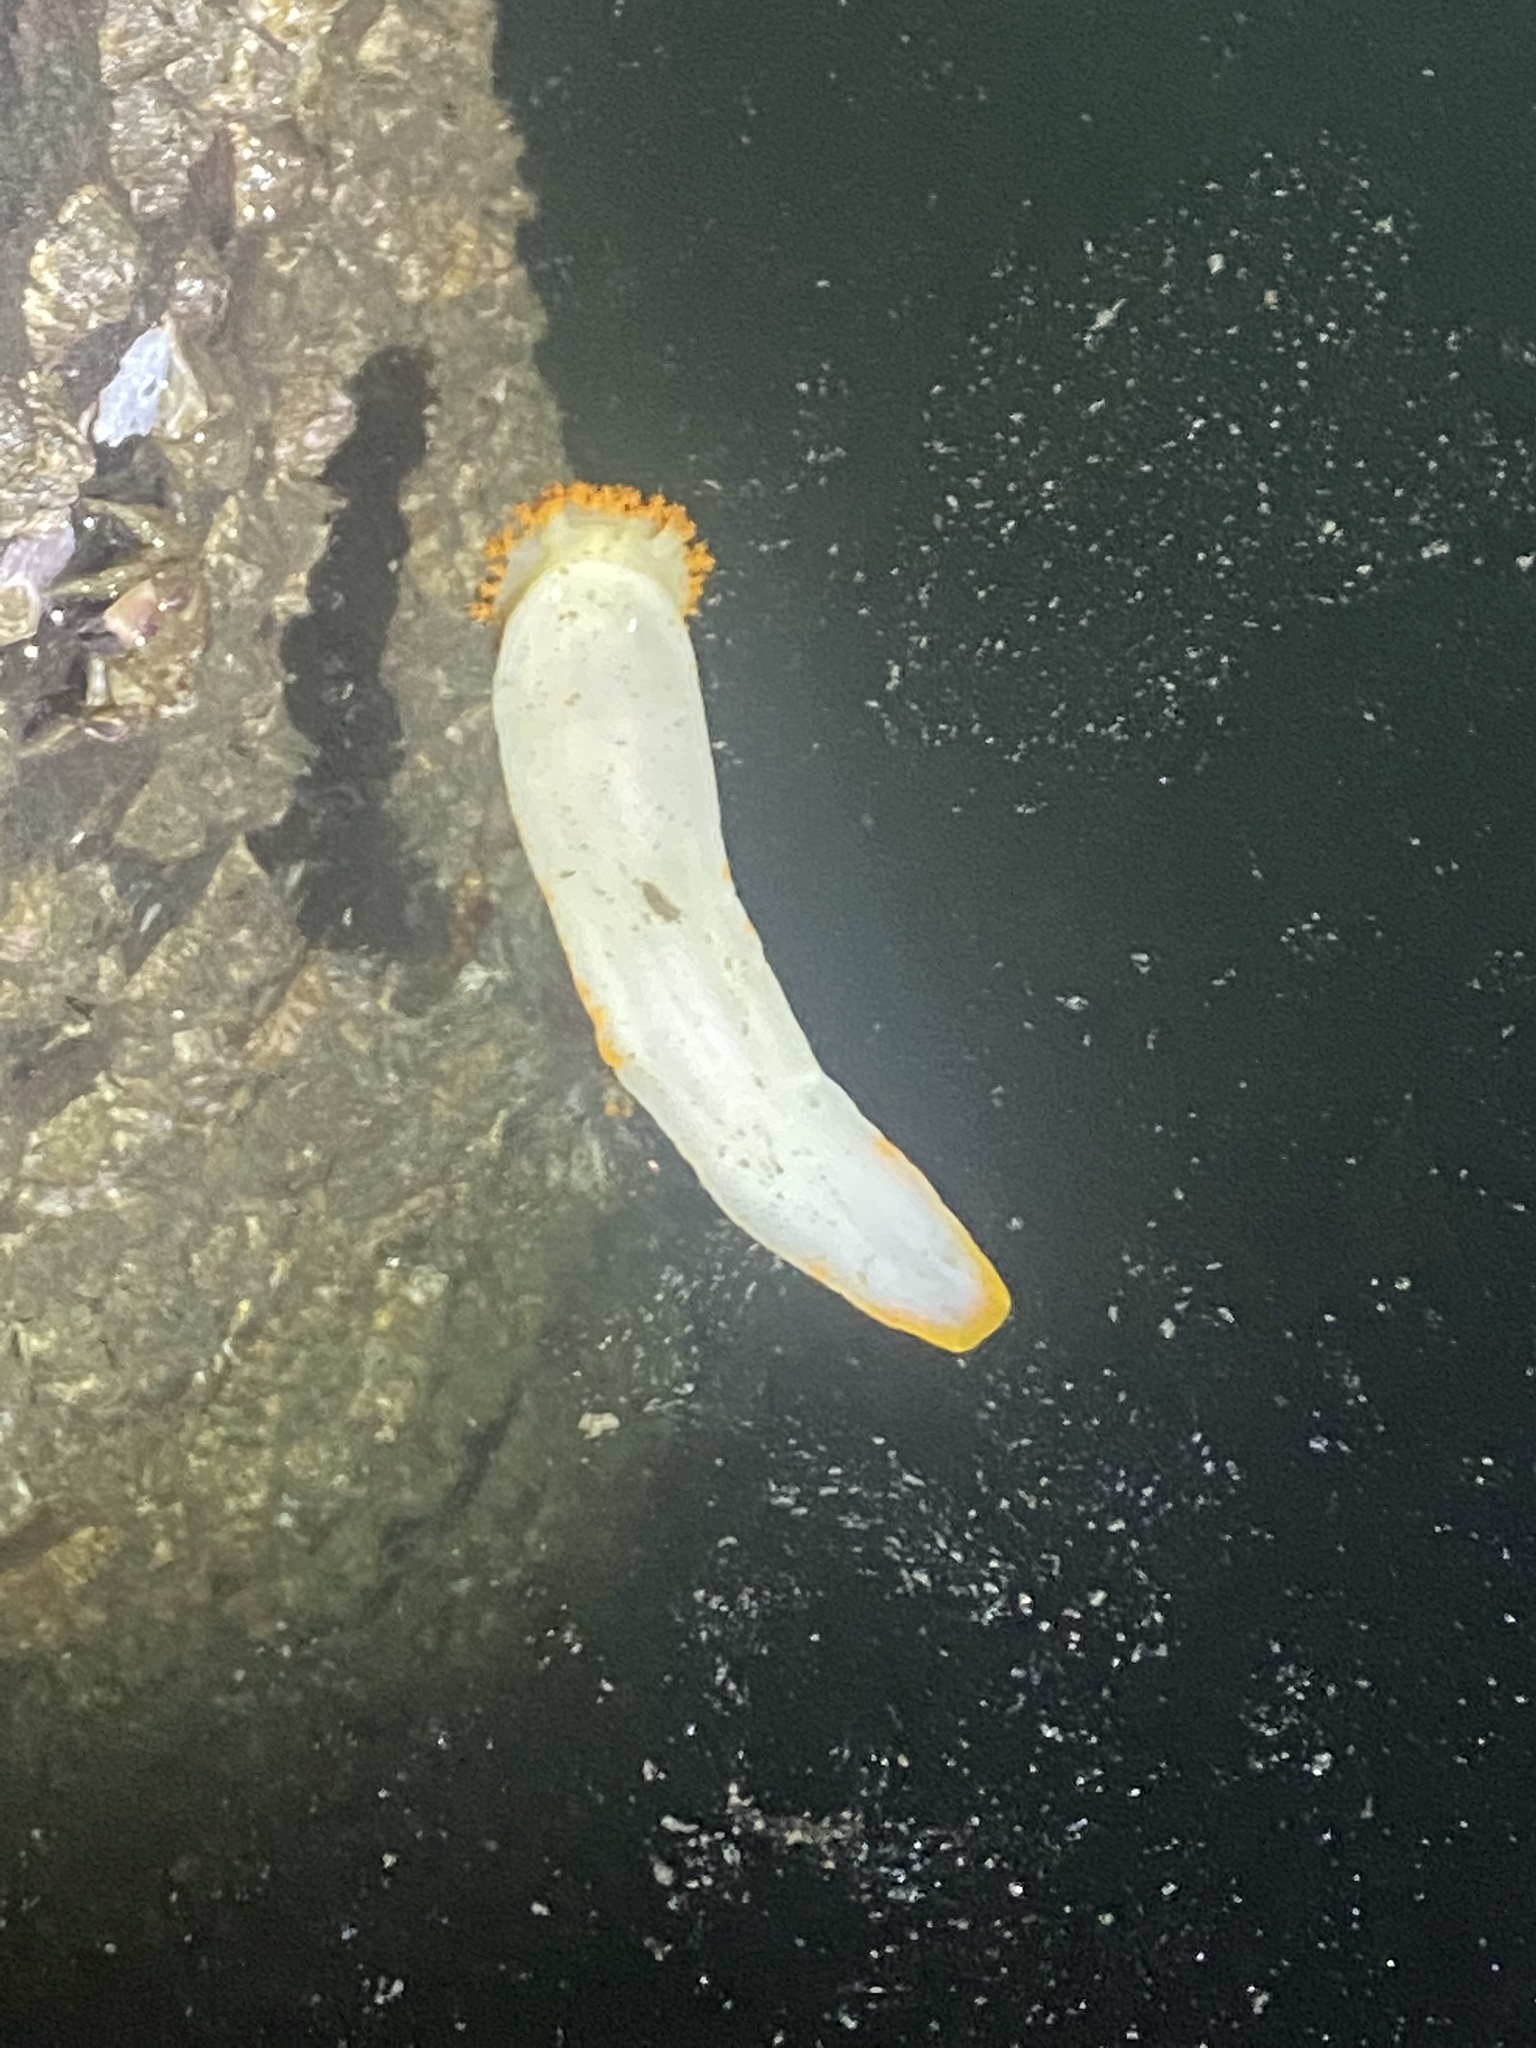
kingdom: Animalia
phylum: Mollusca
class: Gastropoda
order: Nudibranchia
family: Polyceridae
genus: Triopha
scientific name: Triopha modesta
